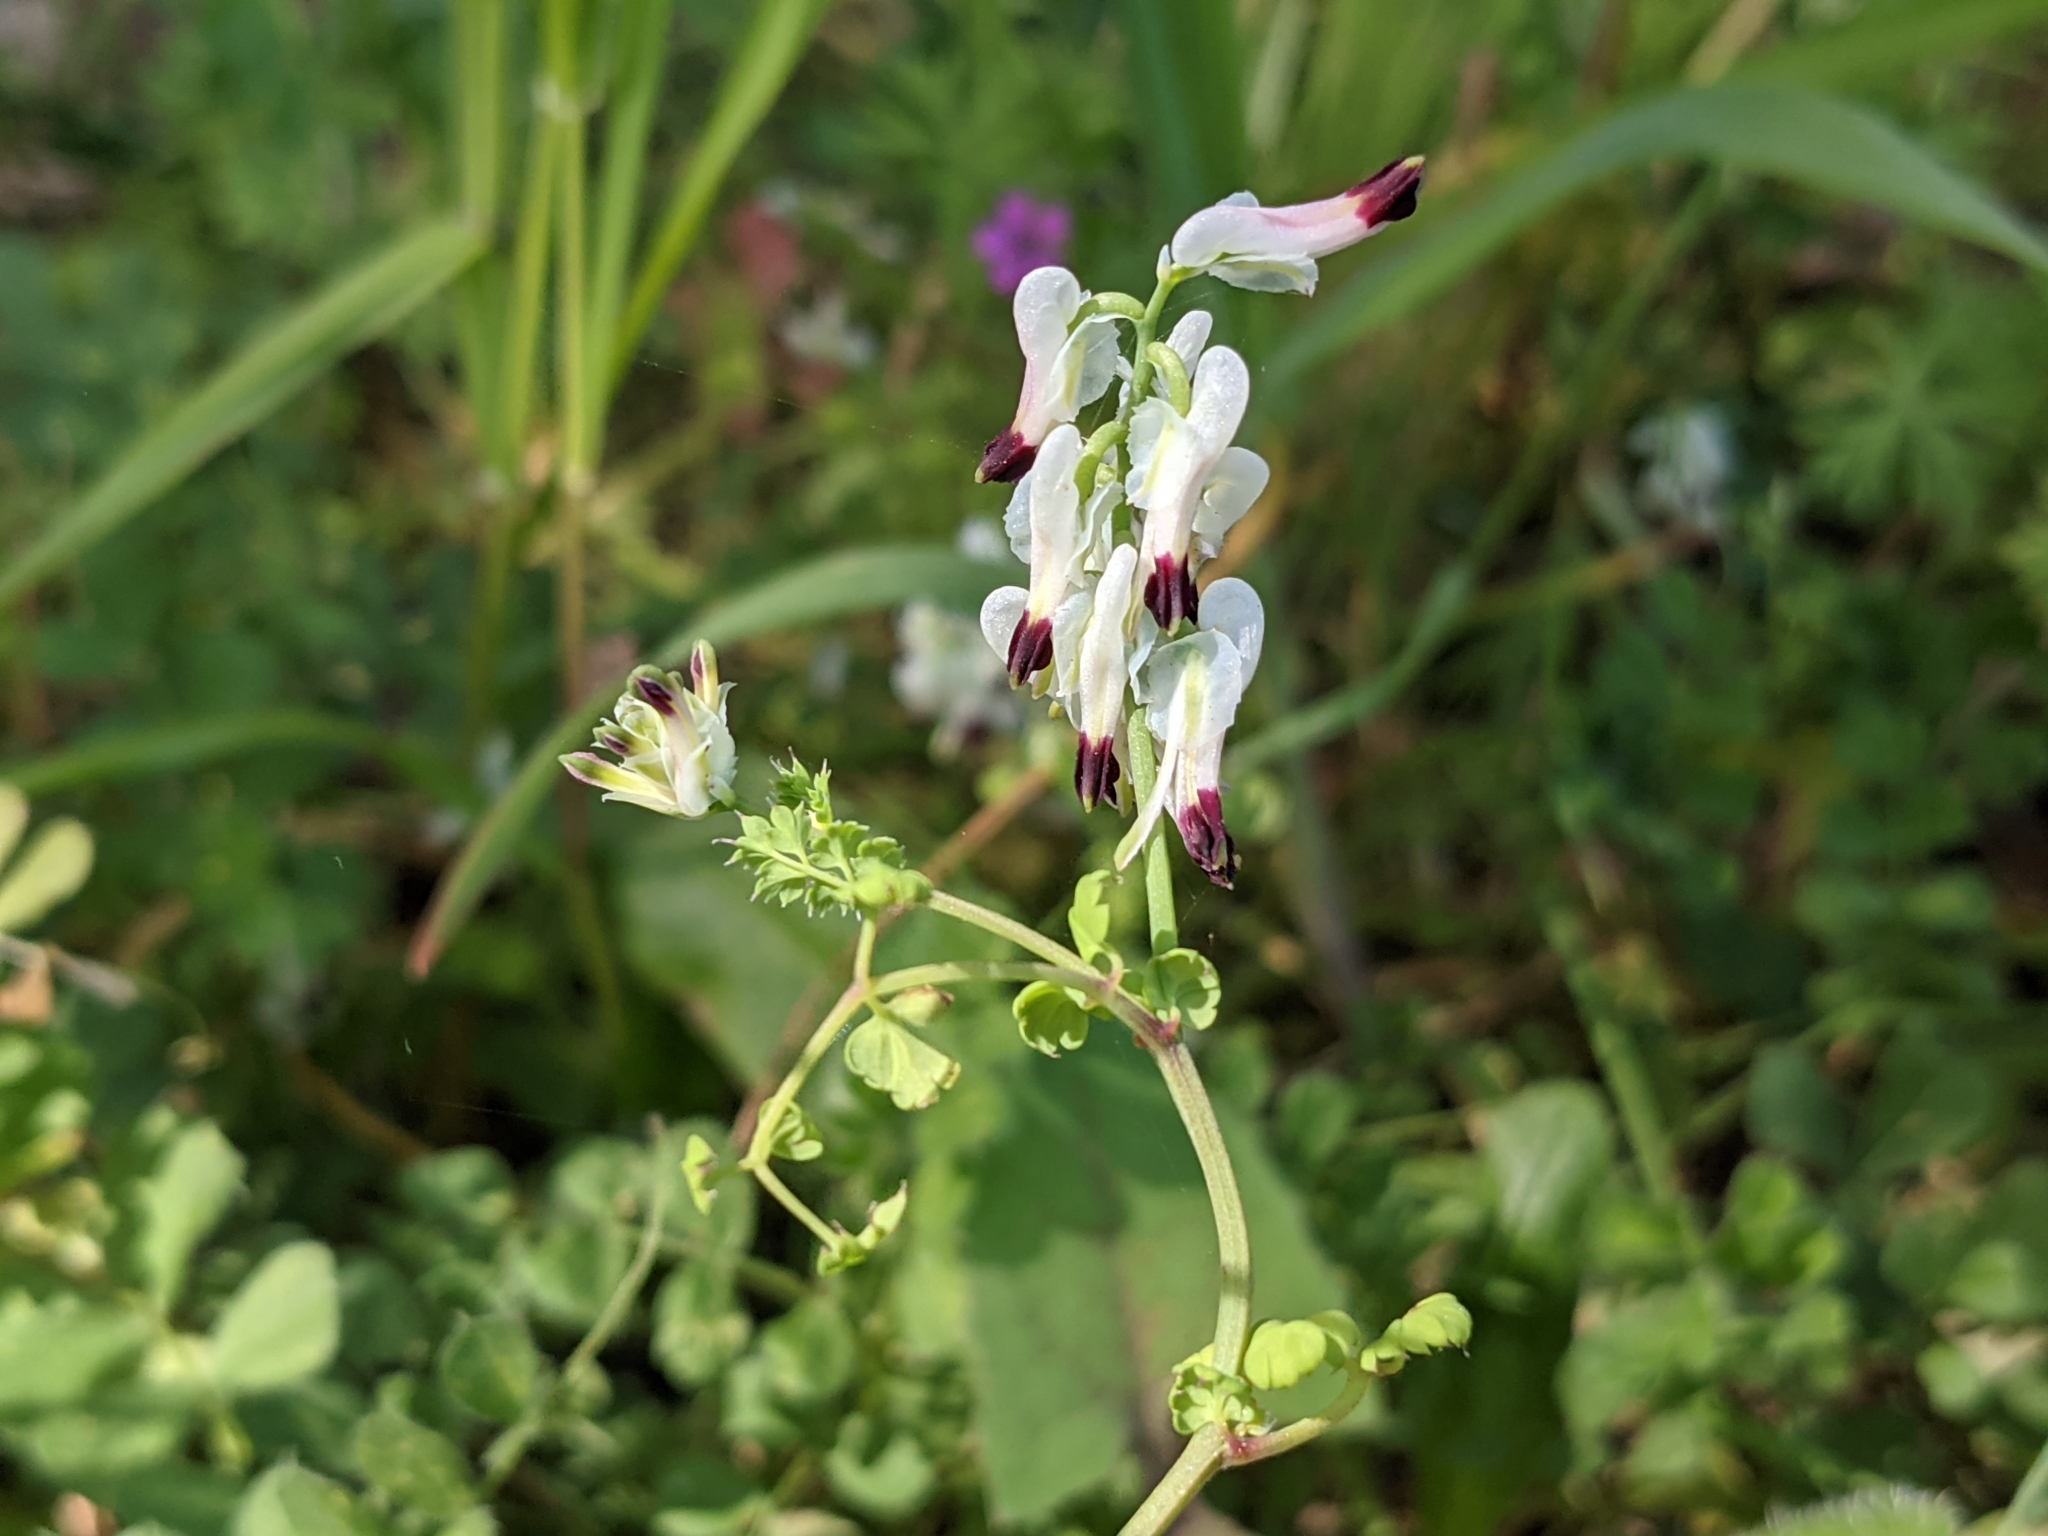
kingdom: Plantae
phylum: Tracheophyta
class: Magnoliopsida
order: Ranunculales
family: Papaveraceae
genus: Fumaria
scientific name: Fumaria capreolata
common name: White ramping-fumitory
